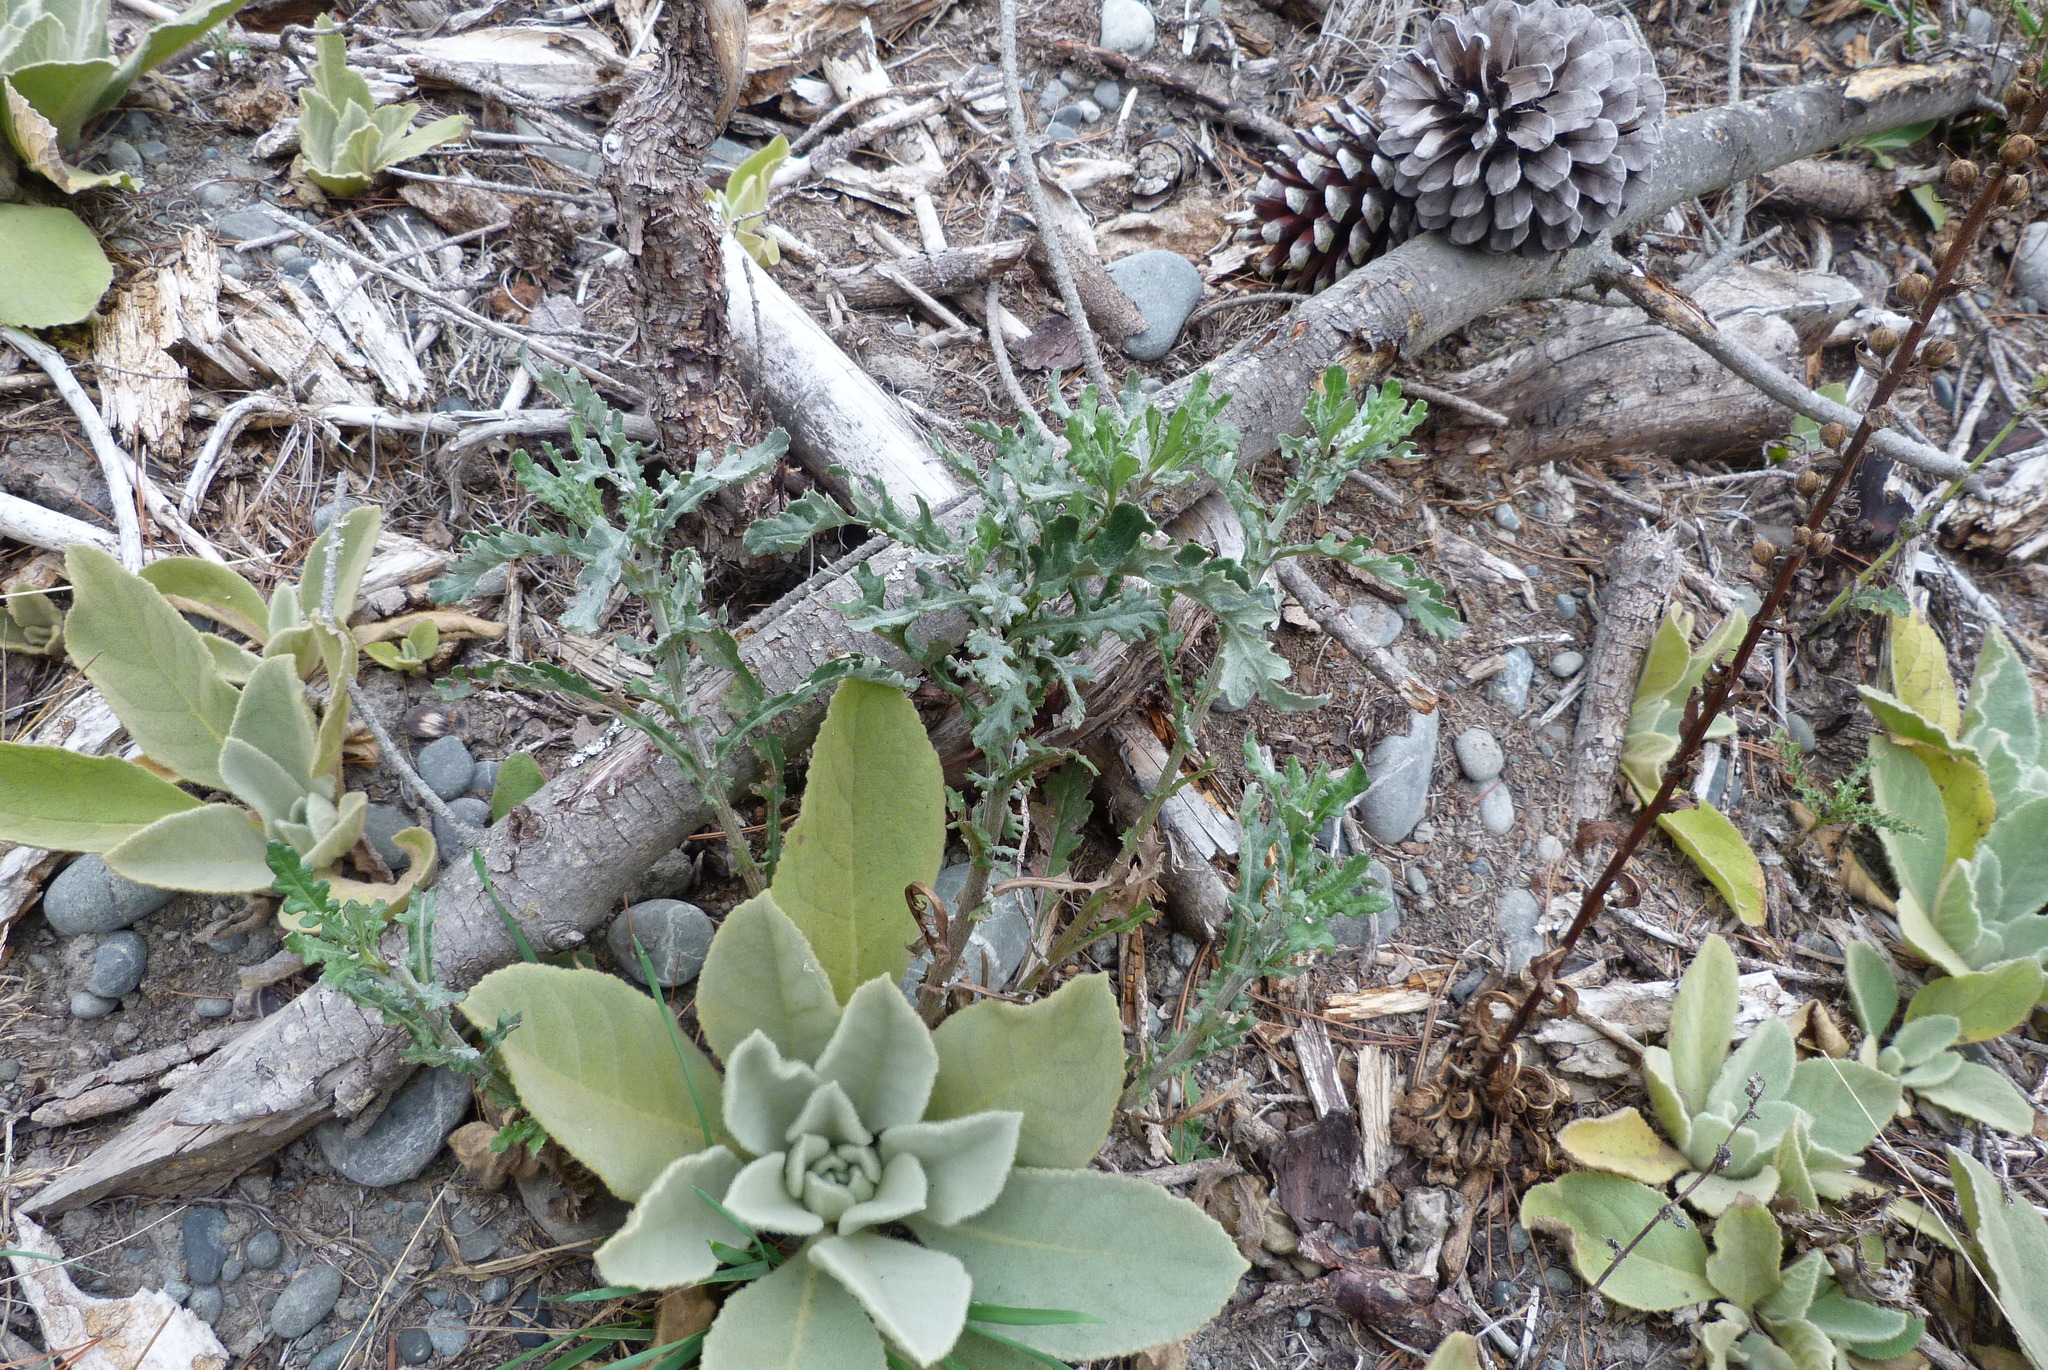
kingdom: Plantae
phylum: Tracheophyta
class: Magnoliopsida
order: Asterales
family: Asteraceae
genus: Senecio
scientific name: Senecio glomeratus
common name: Cutleaf burnweed
